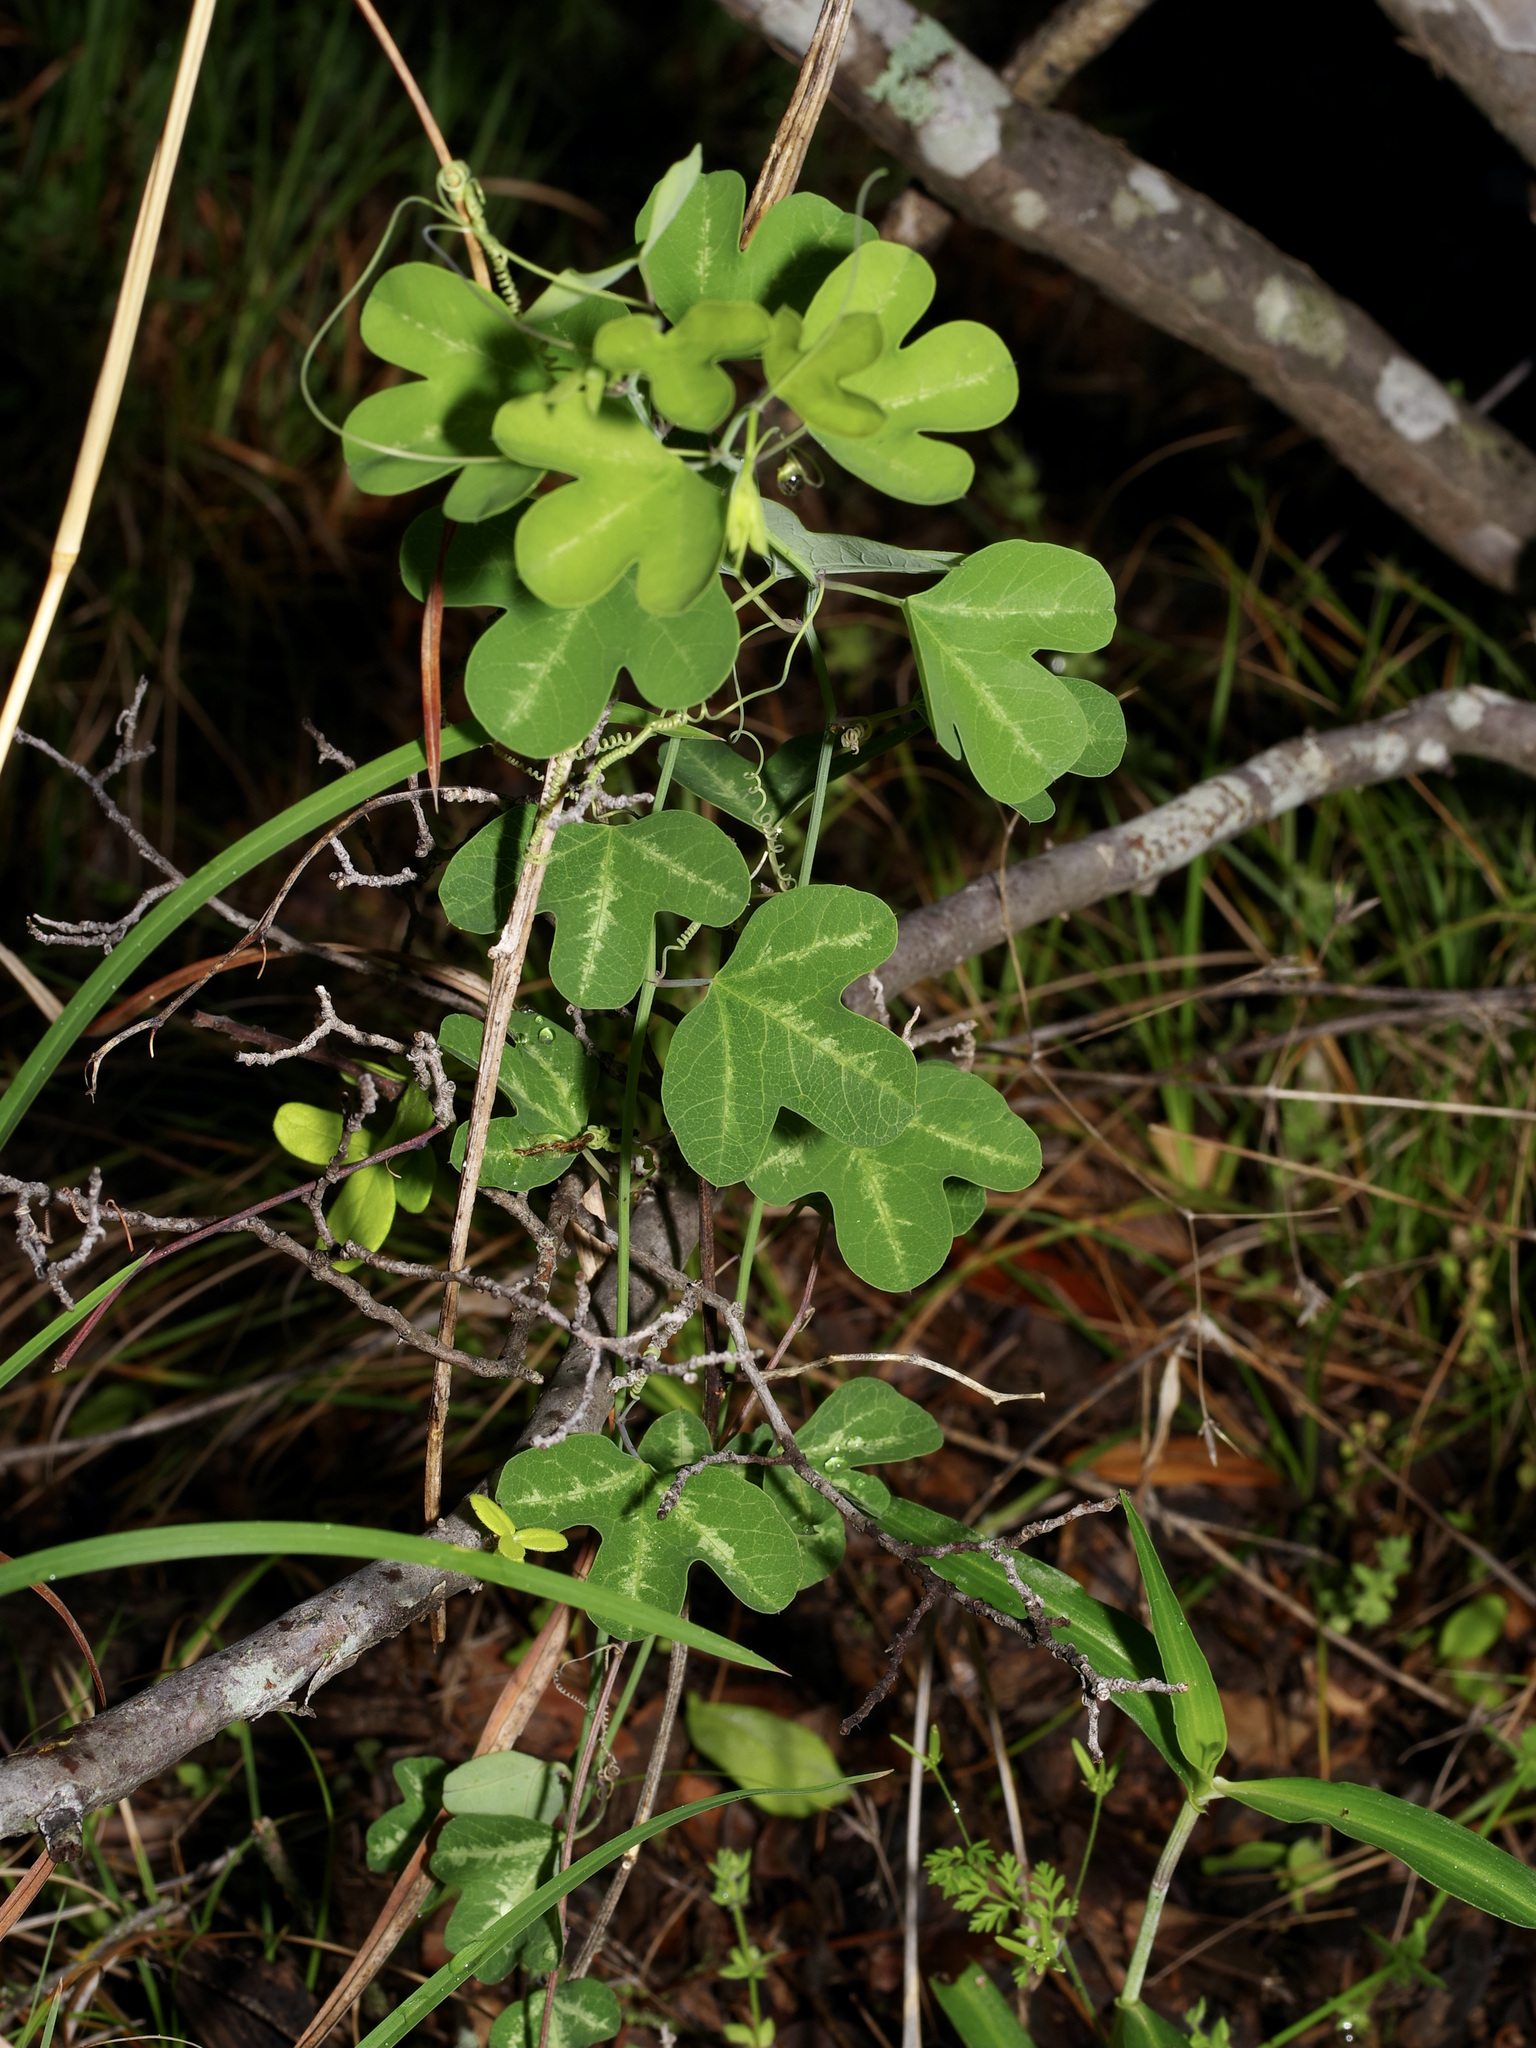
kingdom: Plantae
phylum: Tracheophyta
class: Magnoliopsida
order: Malpighiales
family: Passifloraceae
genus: Passiflora
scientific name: Passiflora affinis
